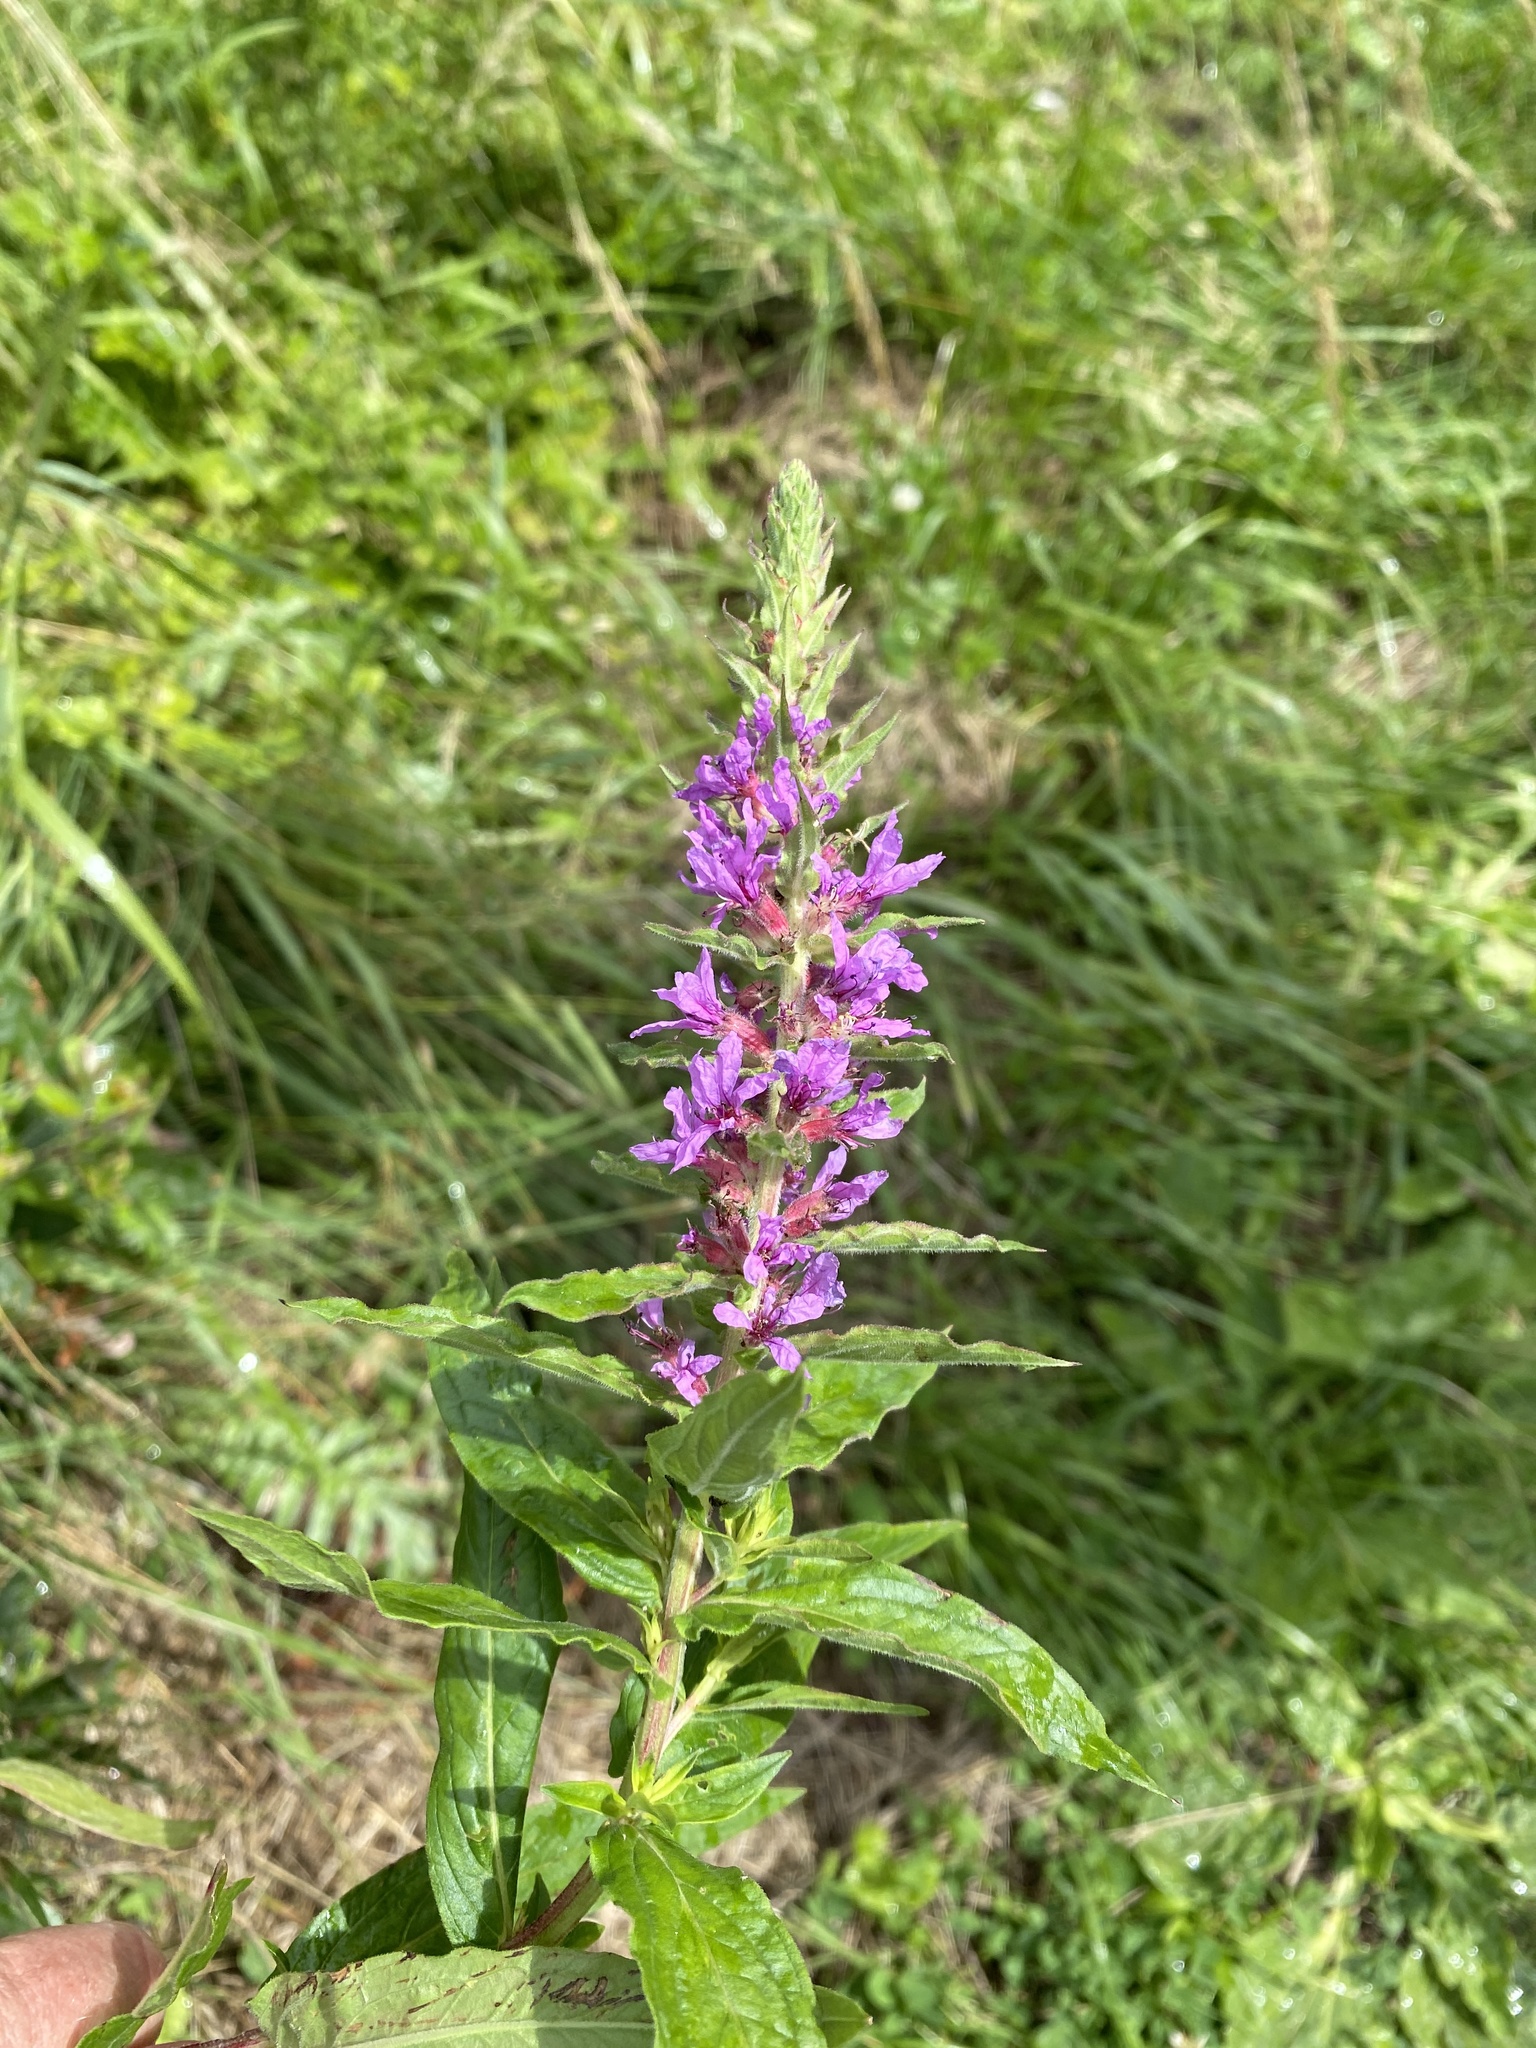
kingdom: Plantae
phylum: Tracheophyta
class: Magnoliopsida
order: Myrtales
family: Lythraceae
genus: Lythrum
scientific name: Lythrum salicaria
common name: Purple loosestrife
